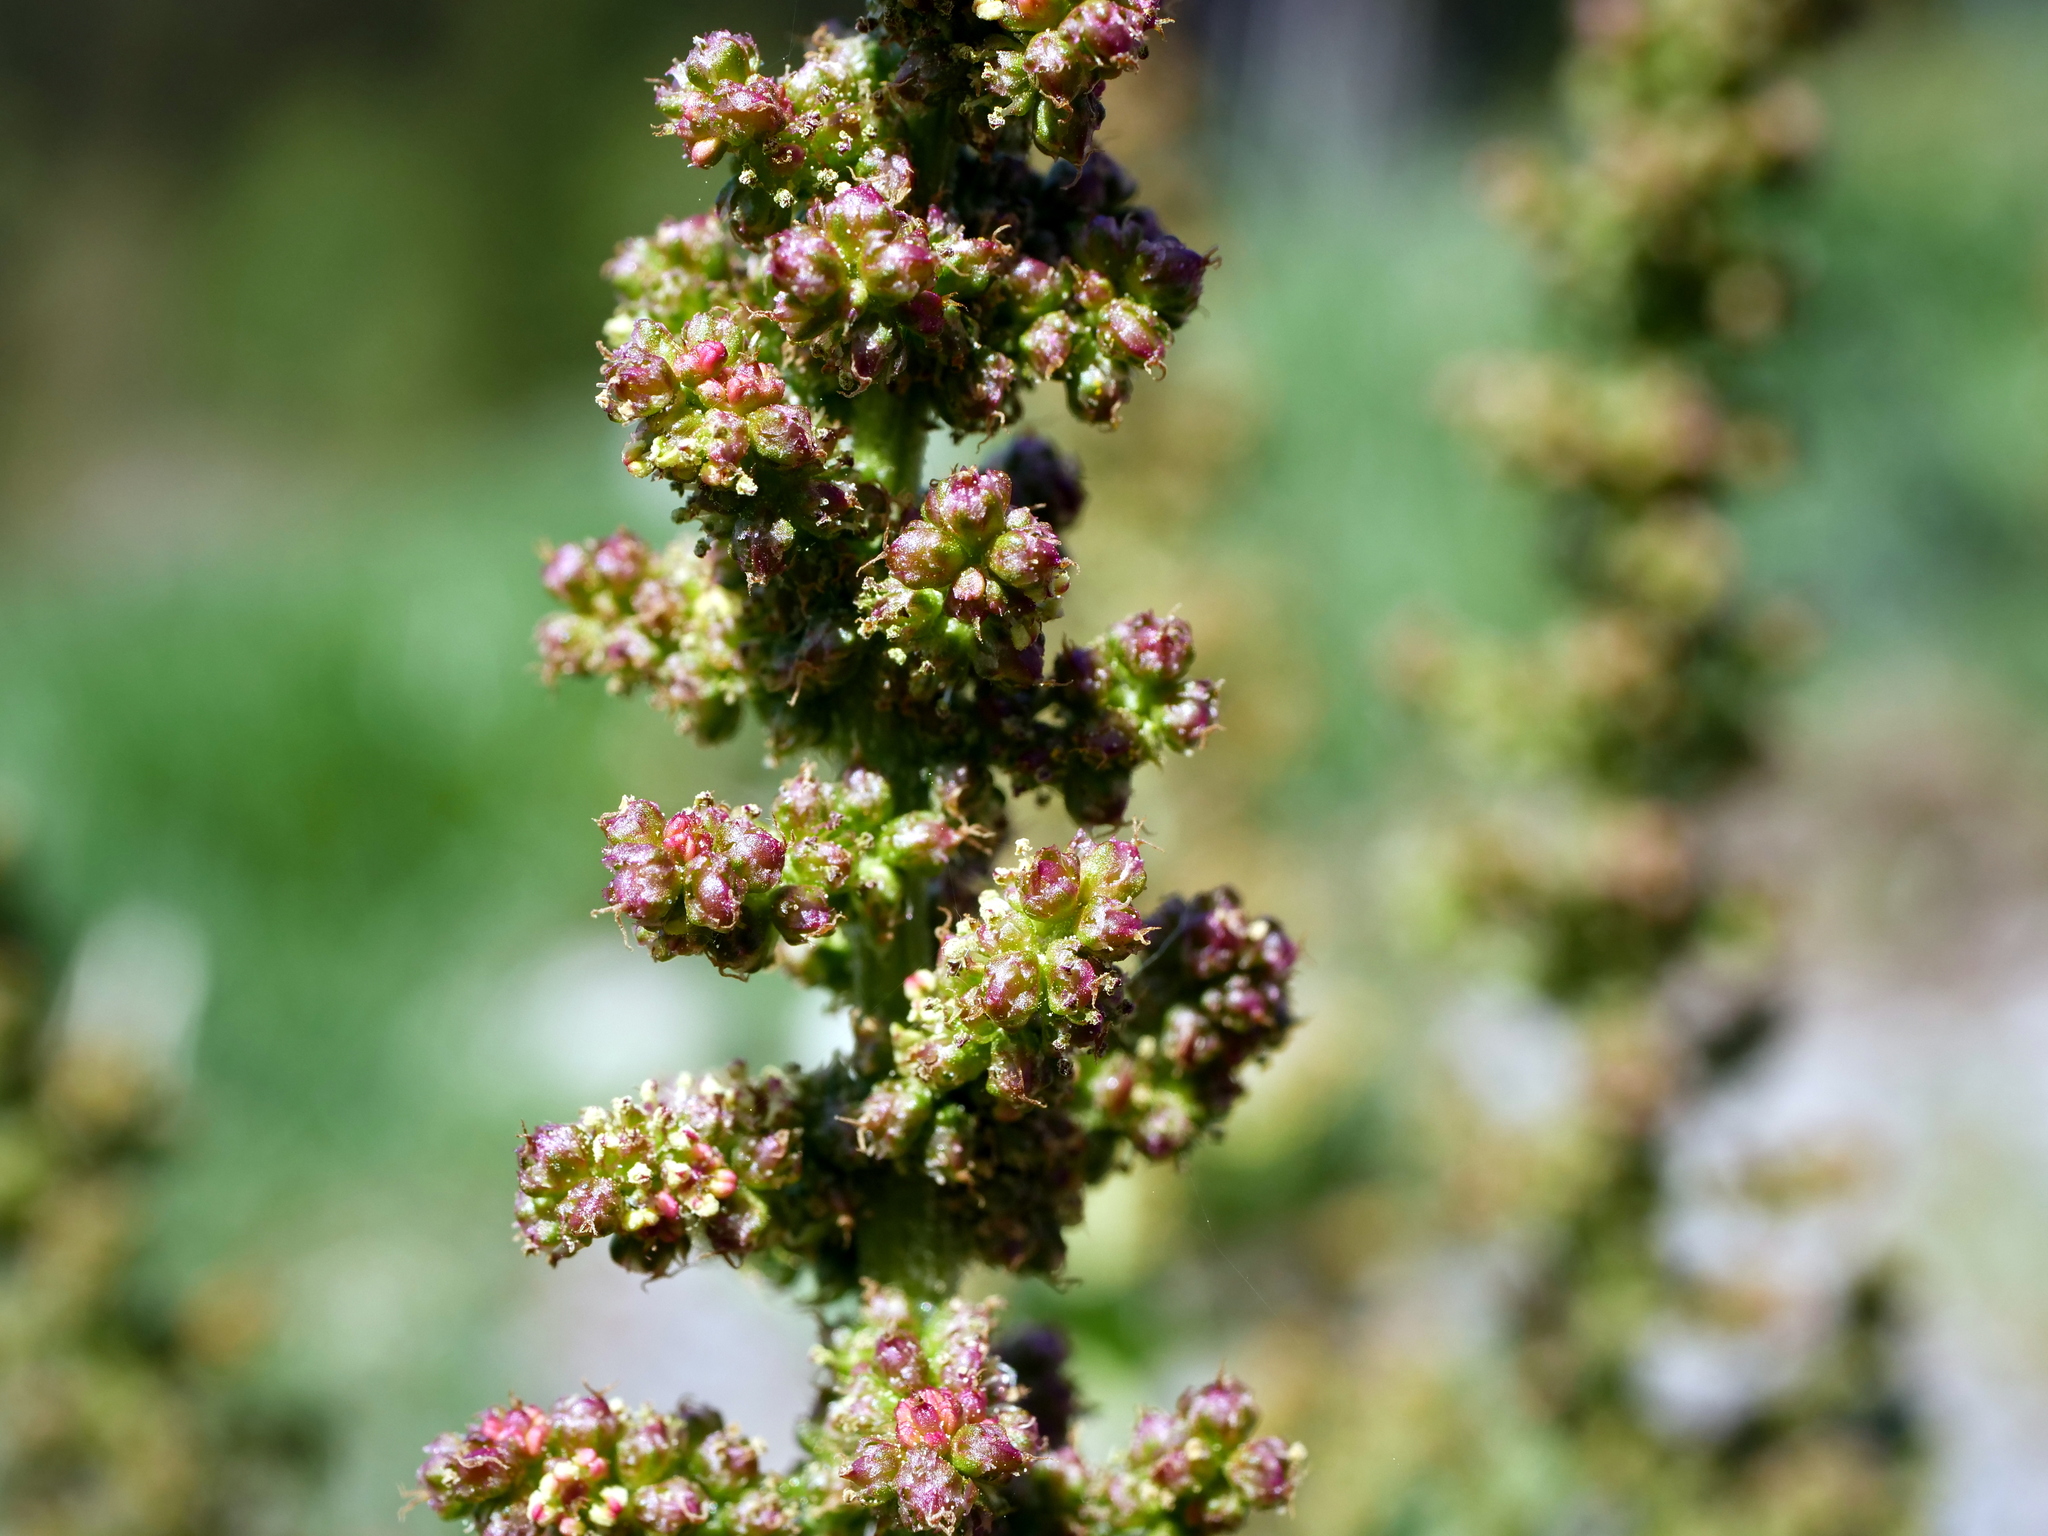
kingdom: Plantae
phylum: Tracheophyta
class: Magnoliopsida
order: Caryophyllales
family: Amaranthaceae
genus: Blitum
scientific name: Blitum bonus-henricus
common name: Good king henry
